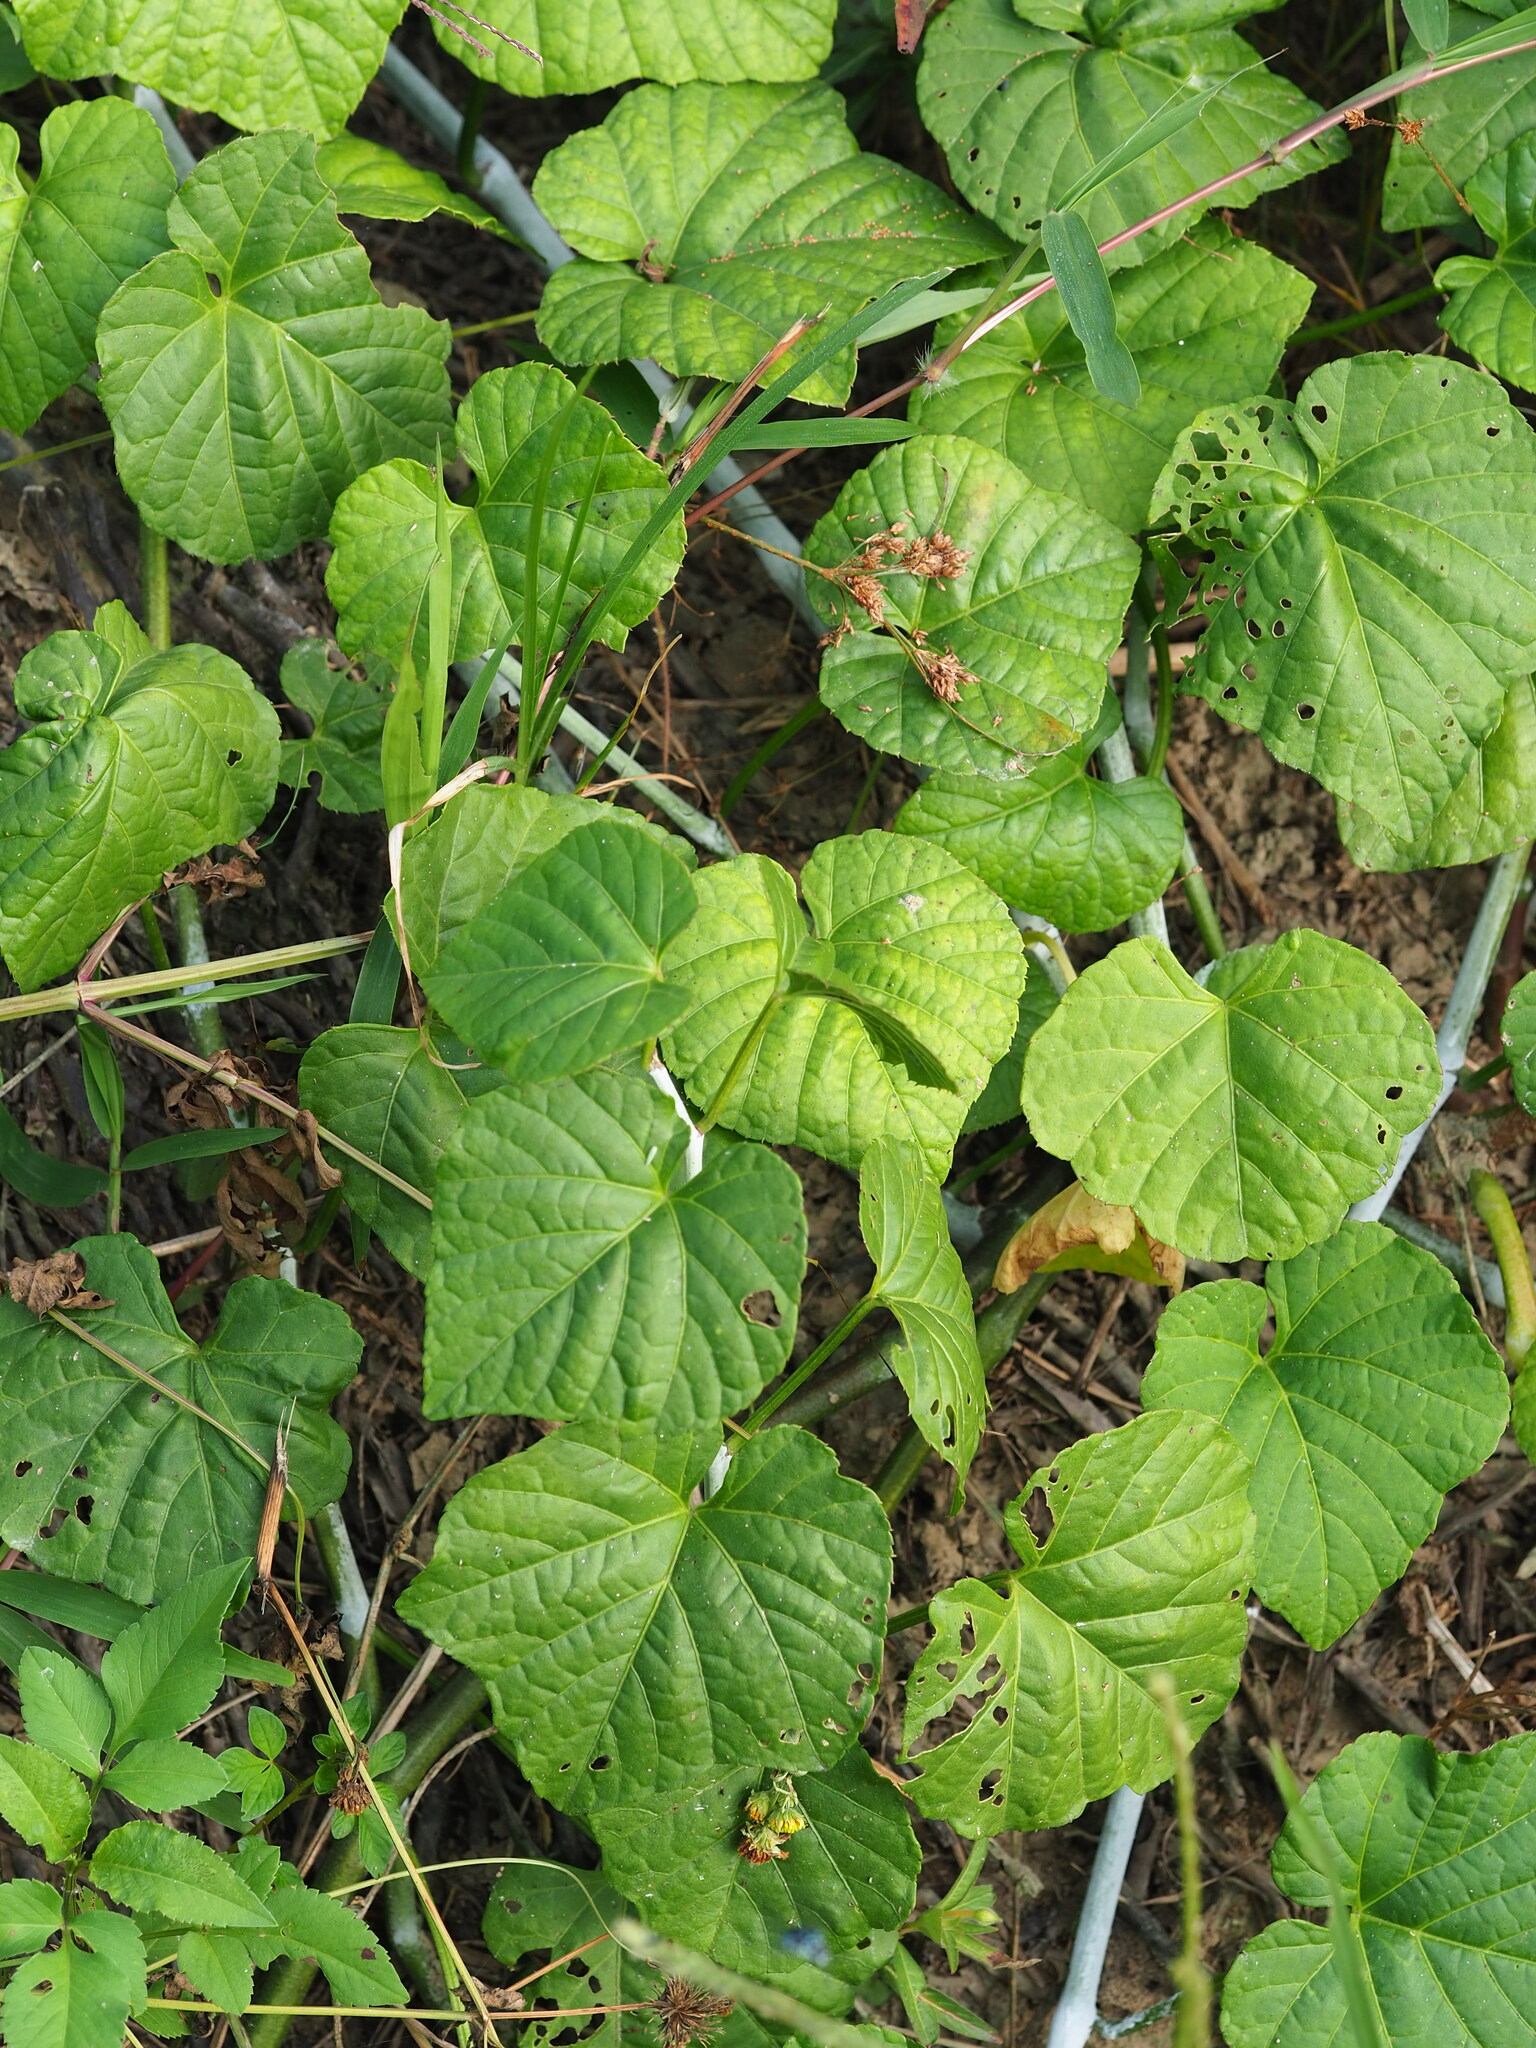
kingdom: Plantae
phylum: Tracheophyta
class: Magnoliopsida
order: Vitales
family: Vitaceae
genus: Cissus
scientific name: Cissus modeccoides
